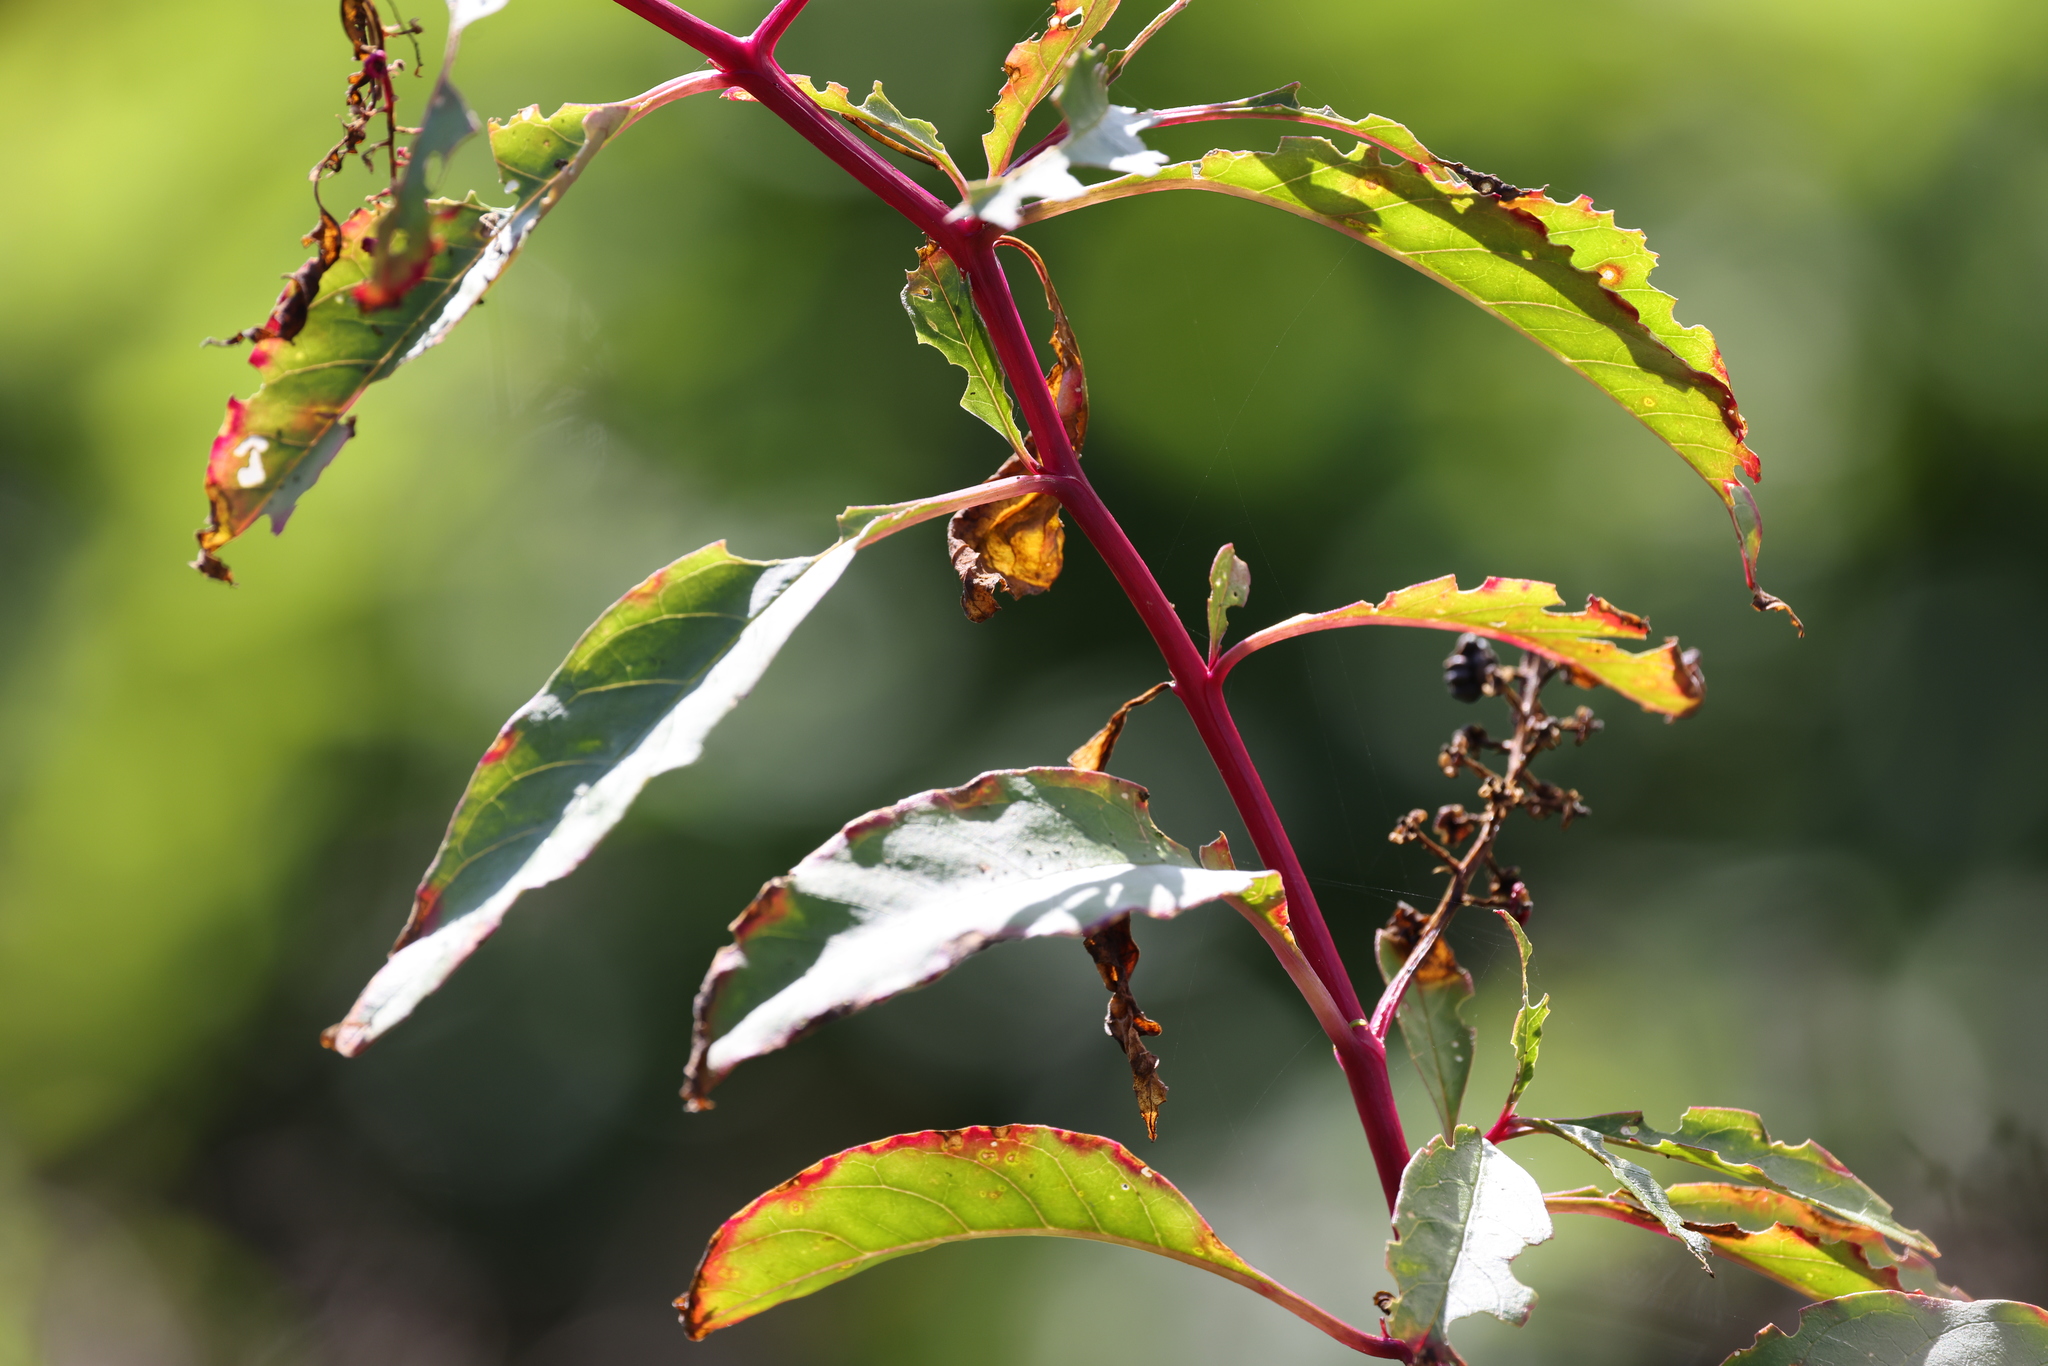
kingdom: Plantae
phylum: Tracheophyta
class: Magnoliopsida
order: Caryophyllales
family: Phytolaccaceae
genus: Phytolacca
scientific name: Phytolacca americana
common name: American pokeweed
